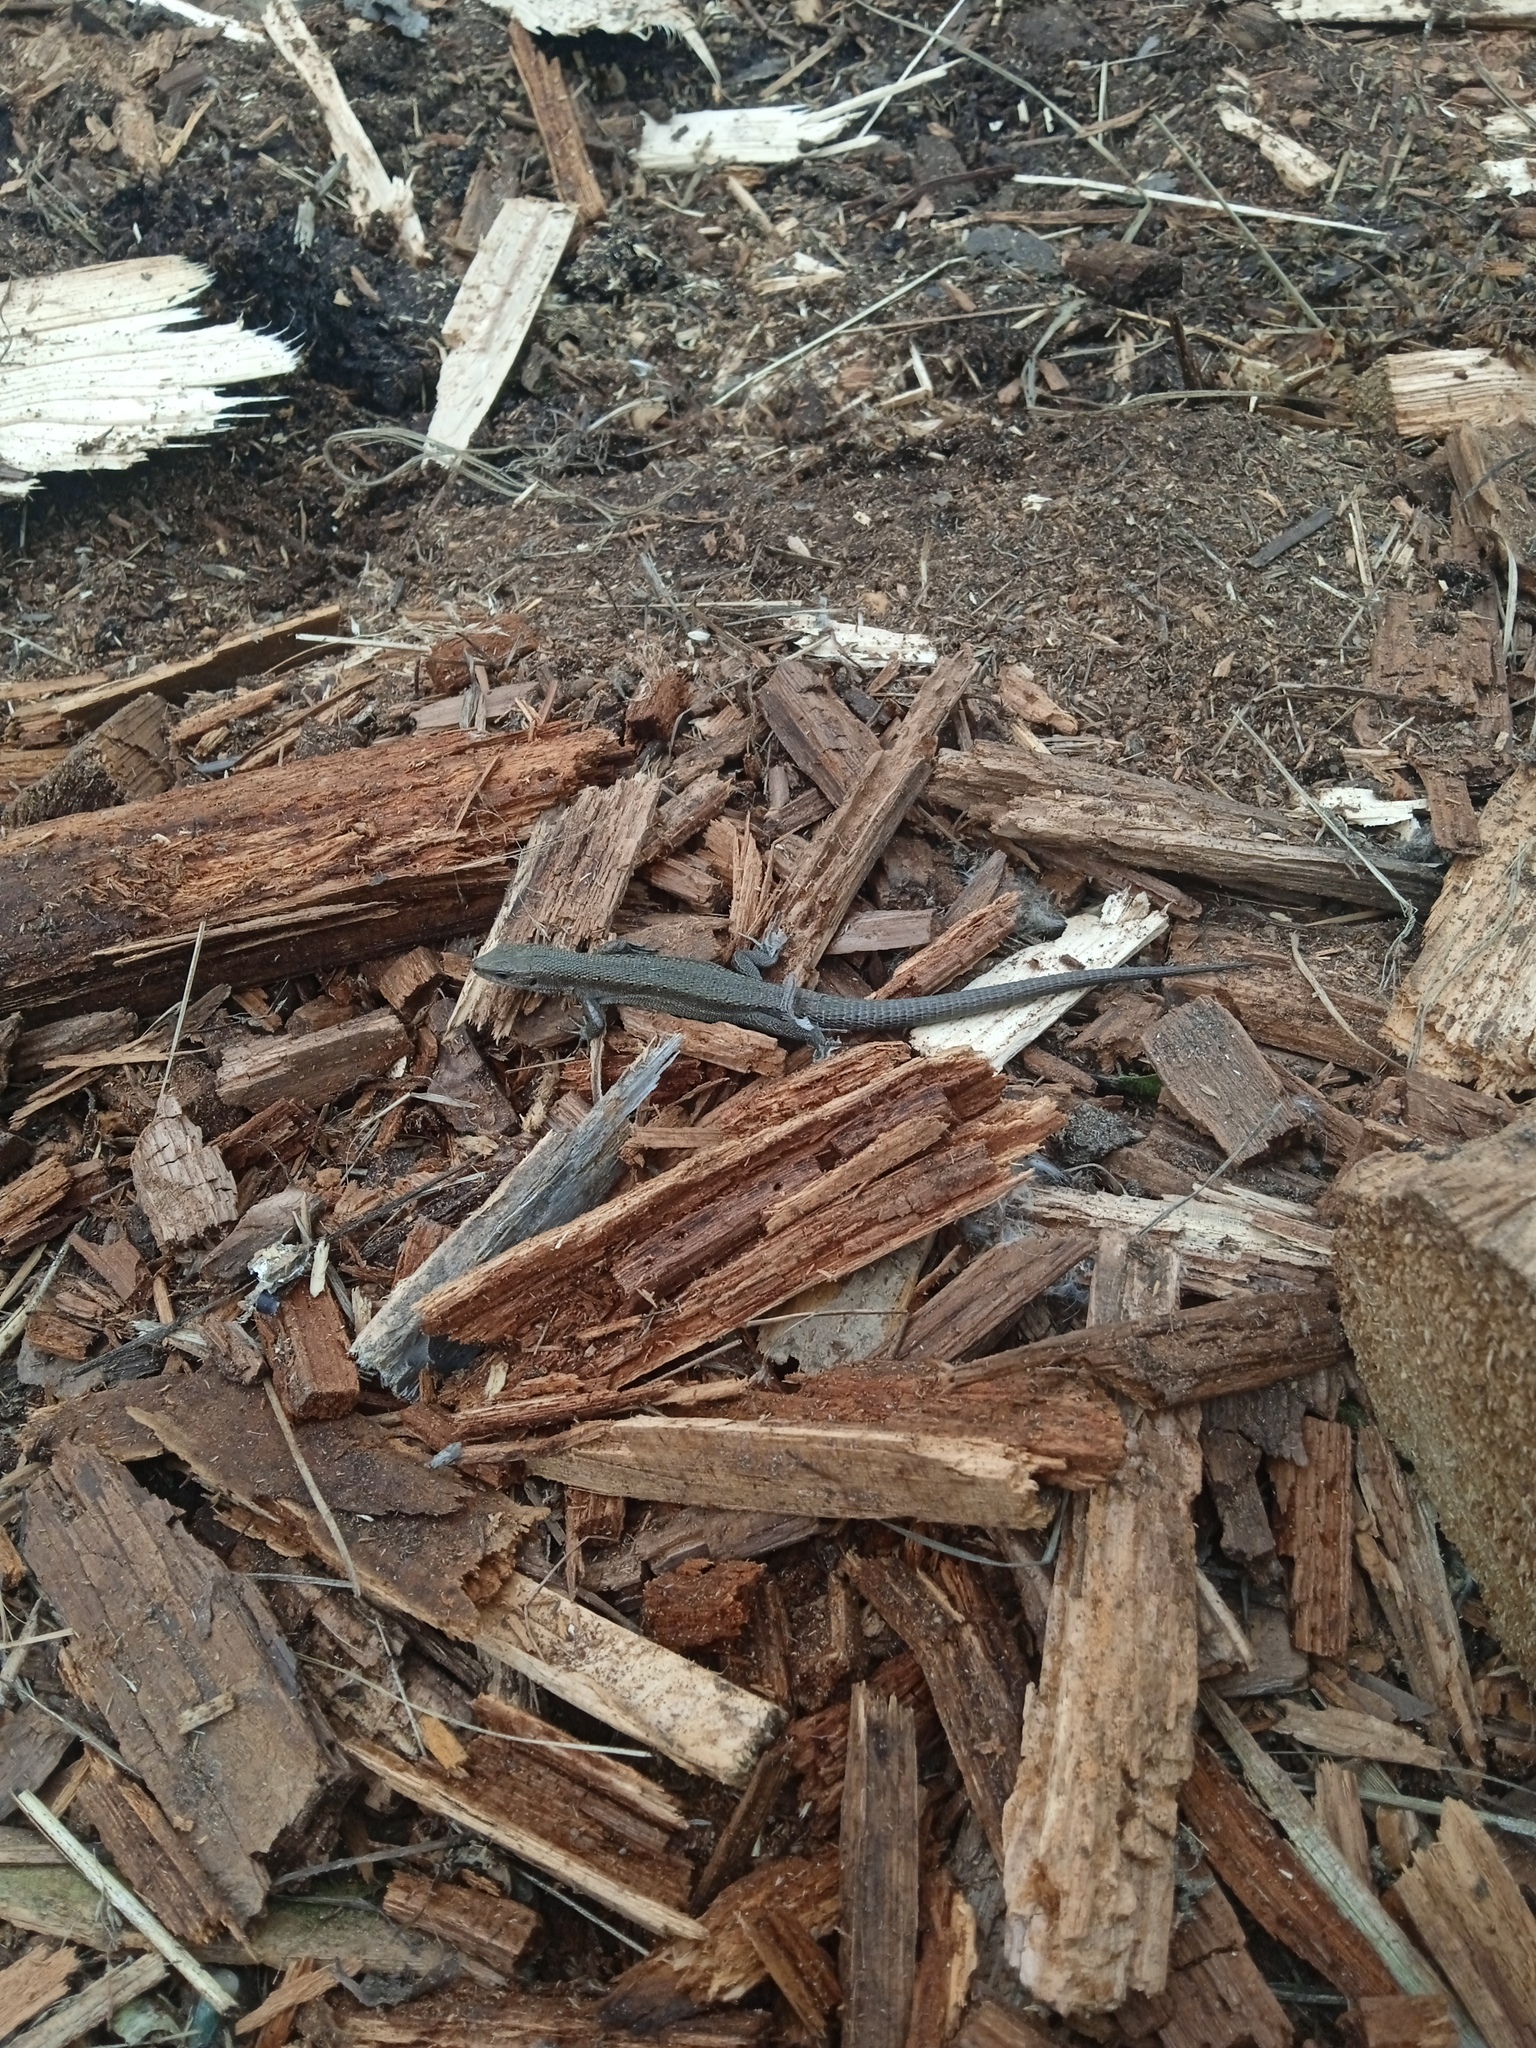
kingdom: Animalia
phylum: Chordata
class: Squamata
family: Lacertidae
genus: Zootoca
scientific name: Zootoca vivipara
